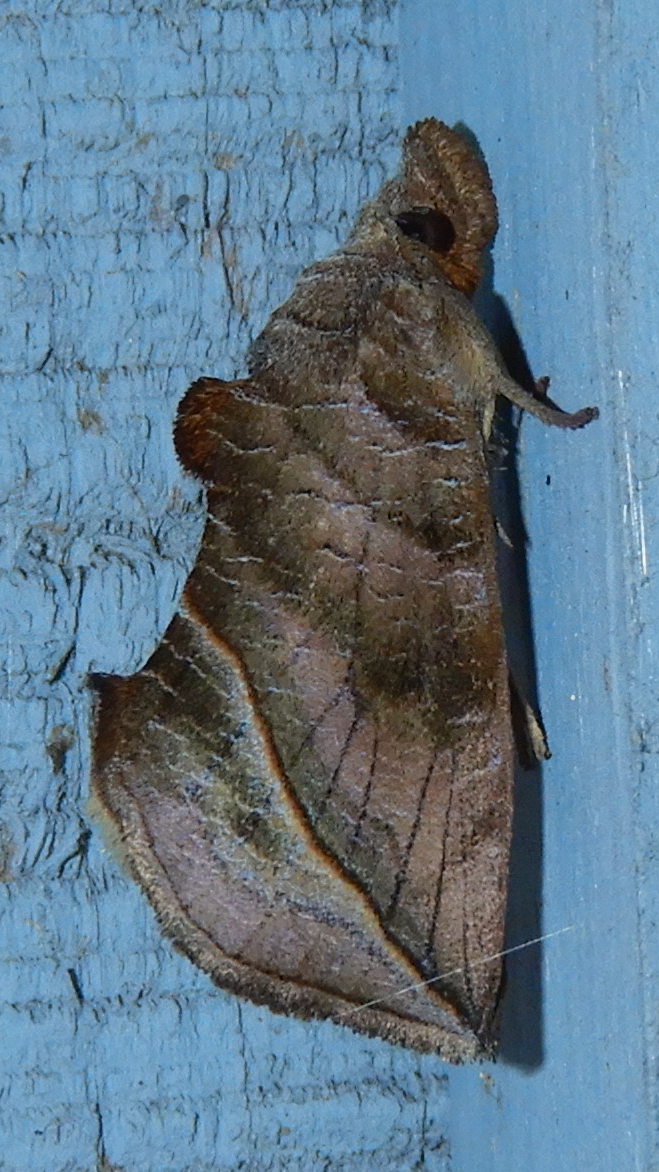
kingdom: Animalia
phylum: Arthropoda
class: Insecta
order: Lepidoptera
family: Erebidae
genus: Calyptra
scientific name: Calyptra canadensis
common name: Canadian owlet
